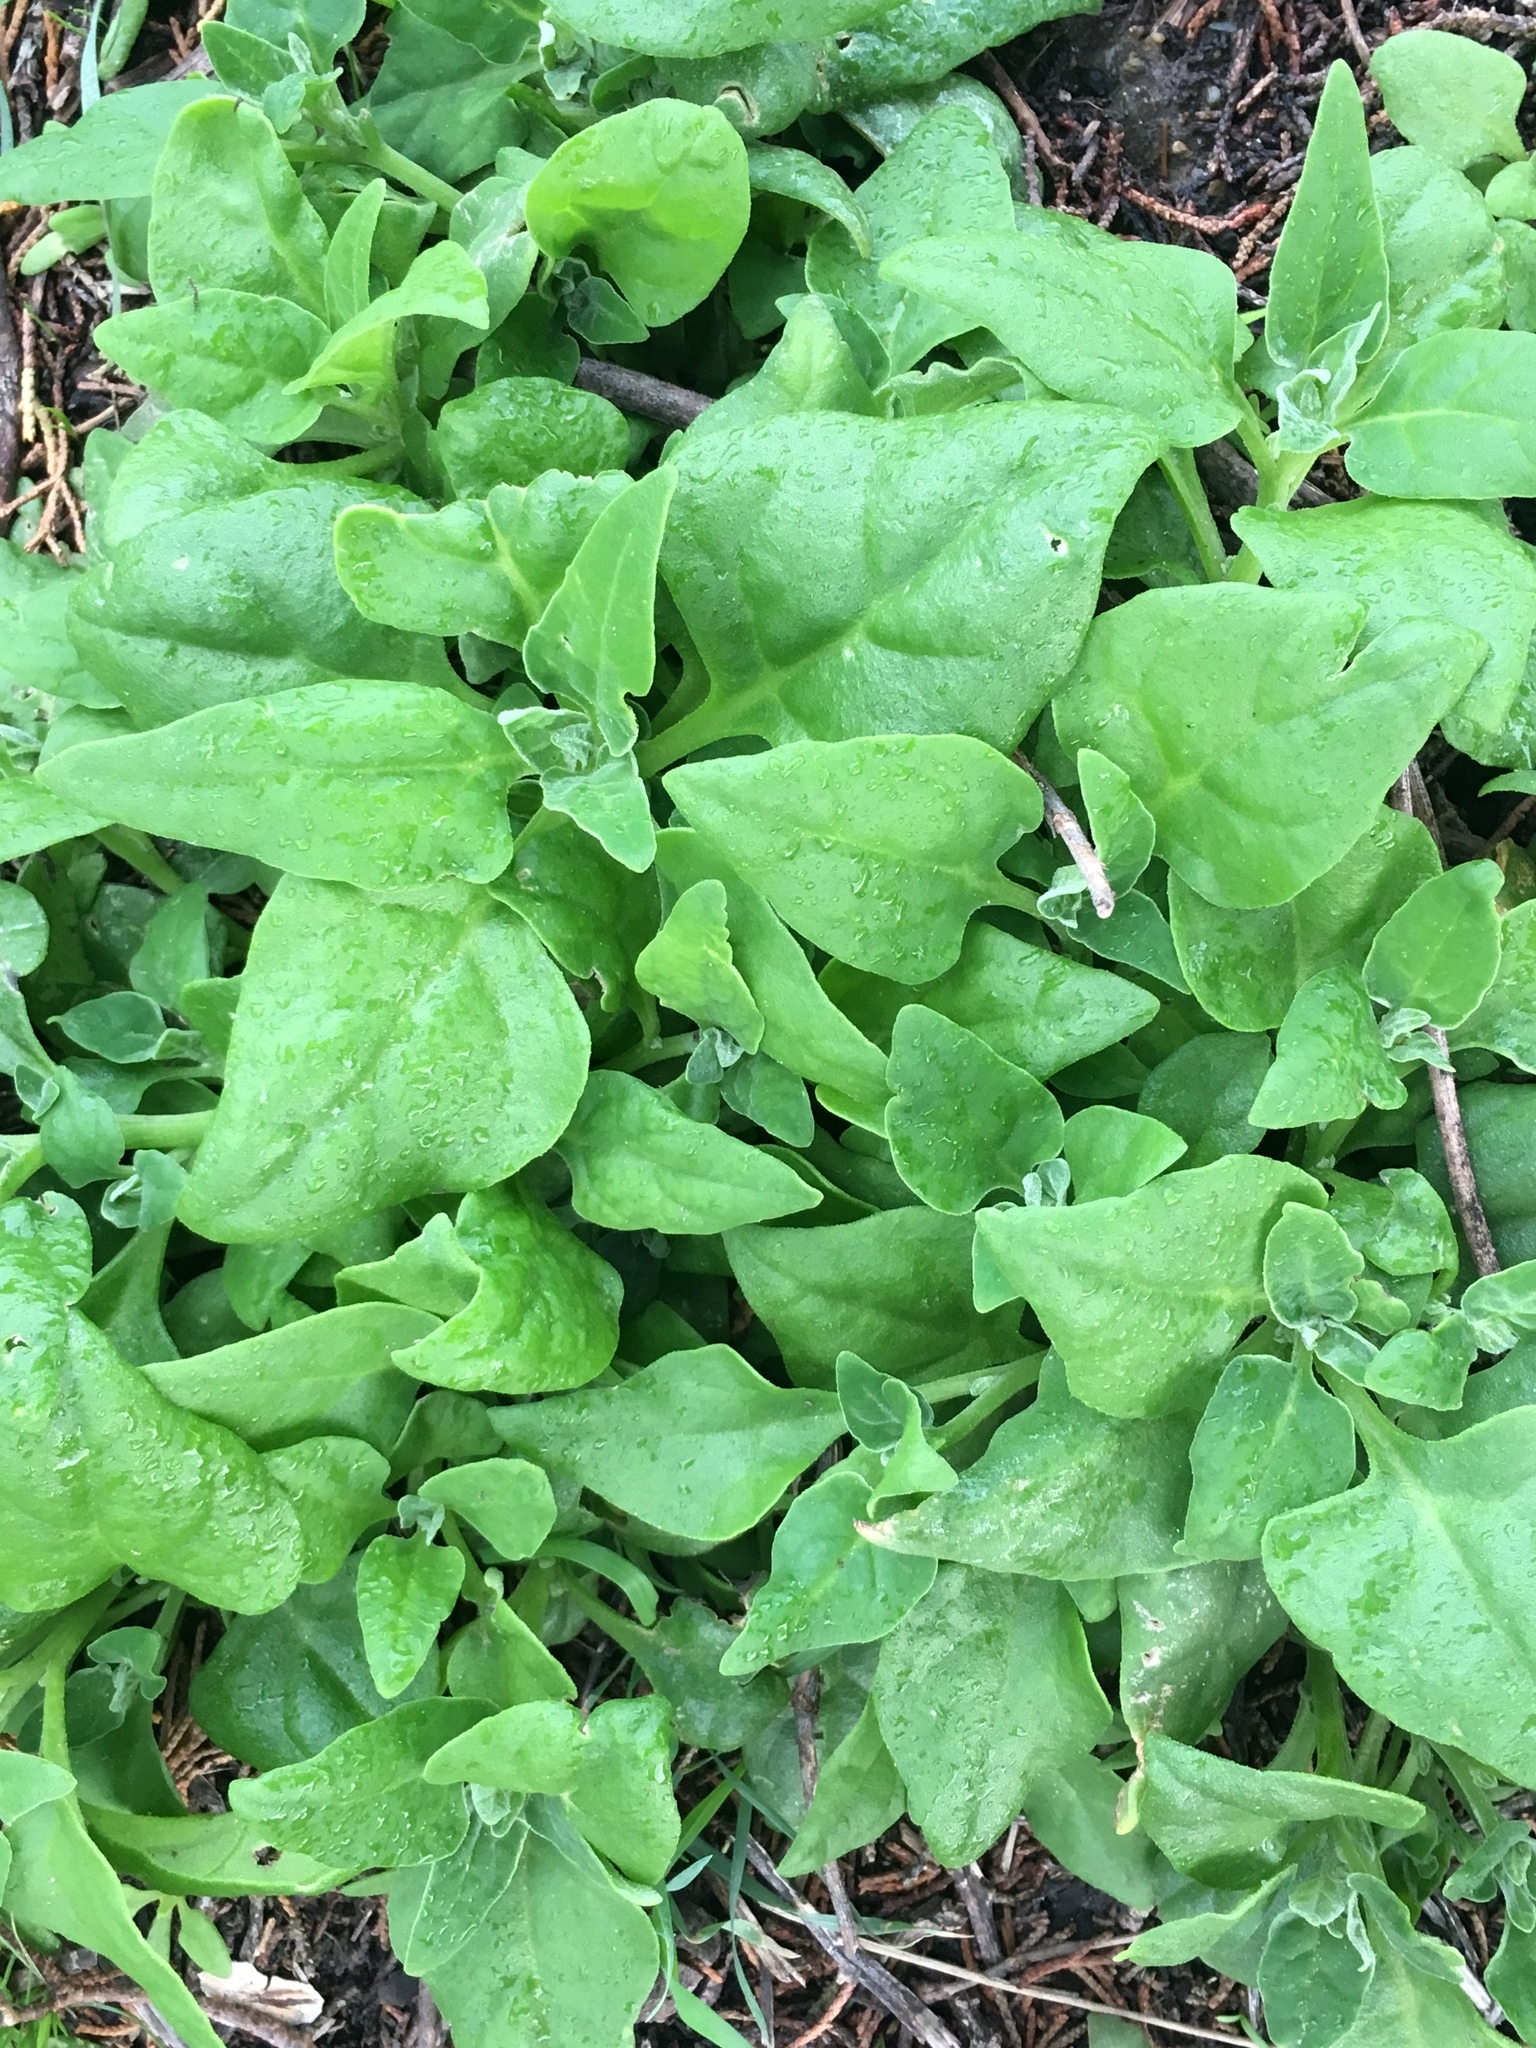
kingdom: Plantae
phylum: Tracheophyta
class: Magnoliopsida
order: Caryophyllales
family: Aizoaceae
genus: Tetragonia
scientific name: Tetragonia tetragonoides
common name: New zealand-spinach
